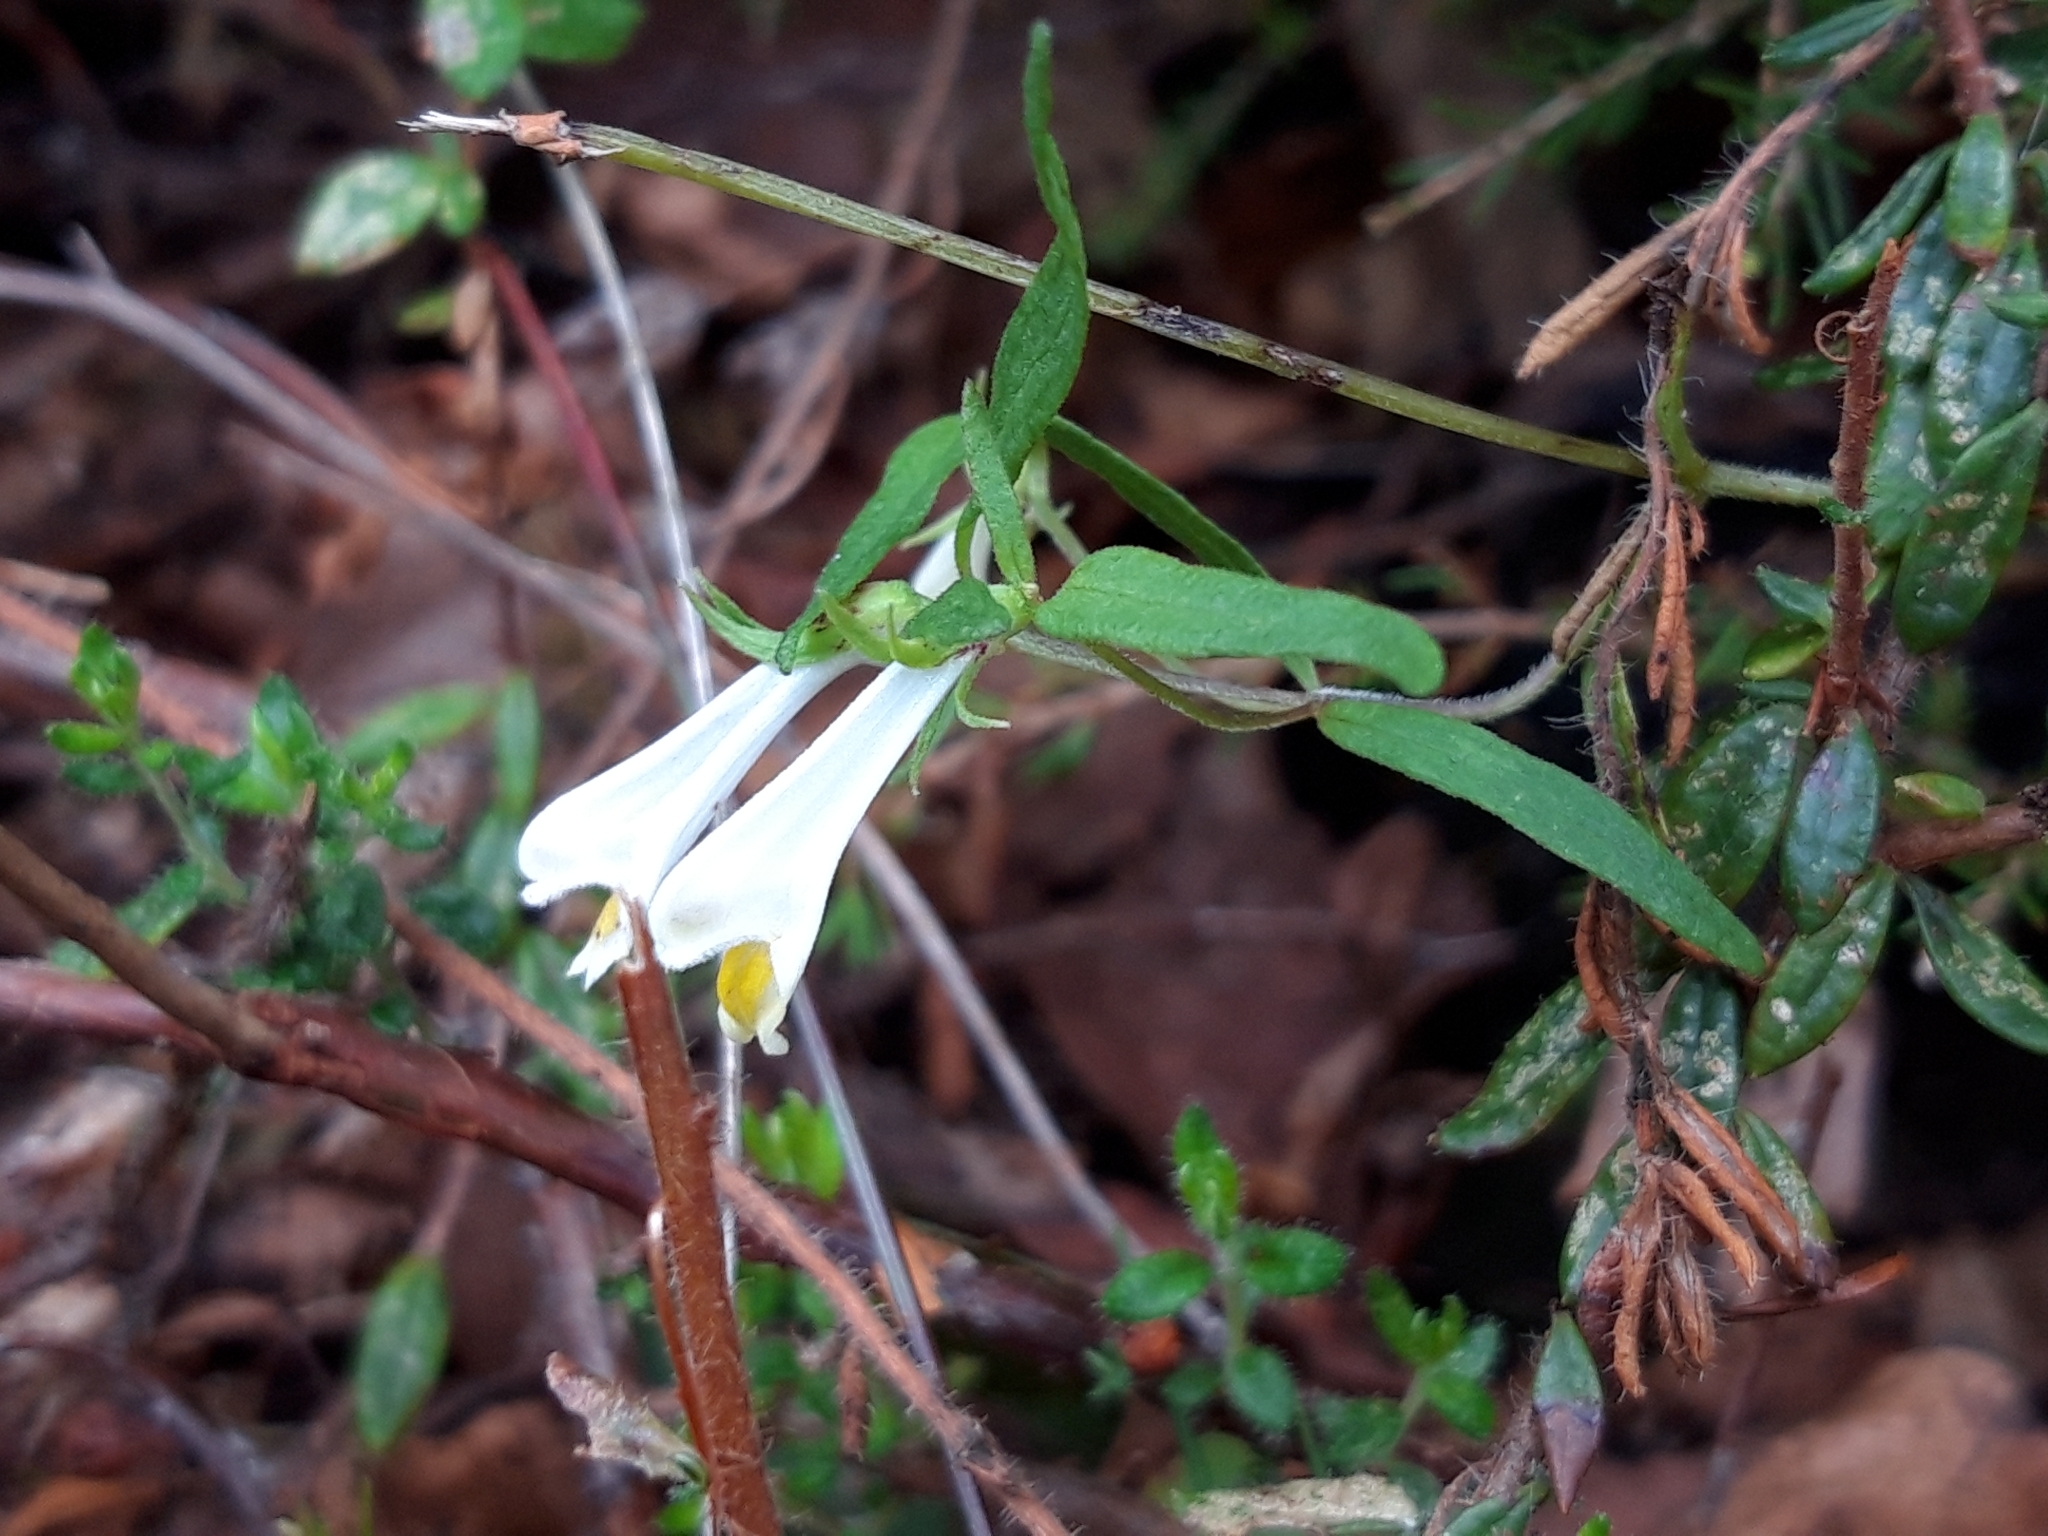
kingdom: Plantae
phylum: Tracheophyta
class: Magnoliopsida
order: Lamiales
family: Orobanchaceae
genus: Melampyrum
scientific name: Melampyrum pratense
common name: Common cow-wheat
